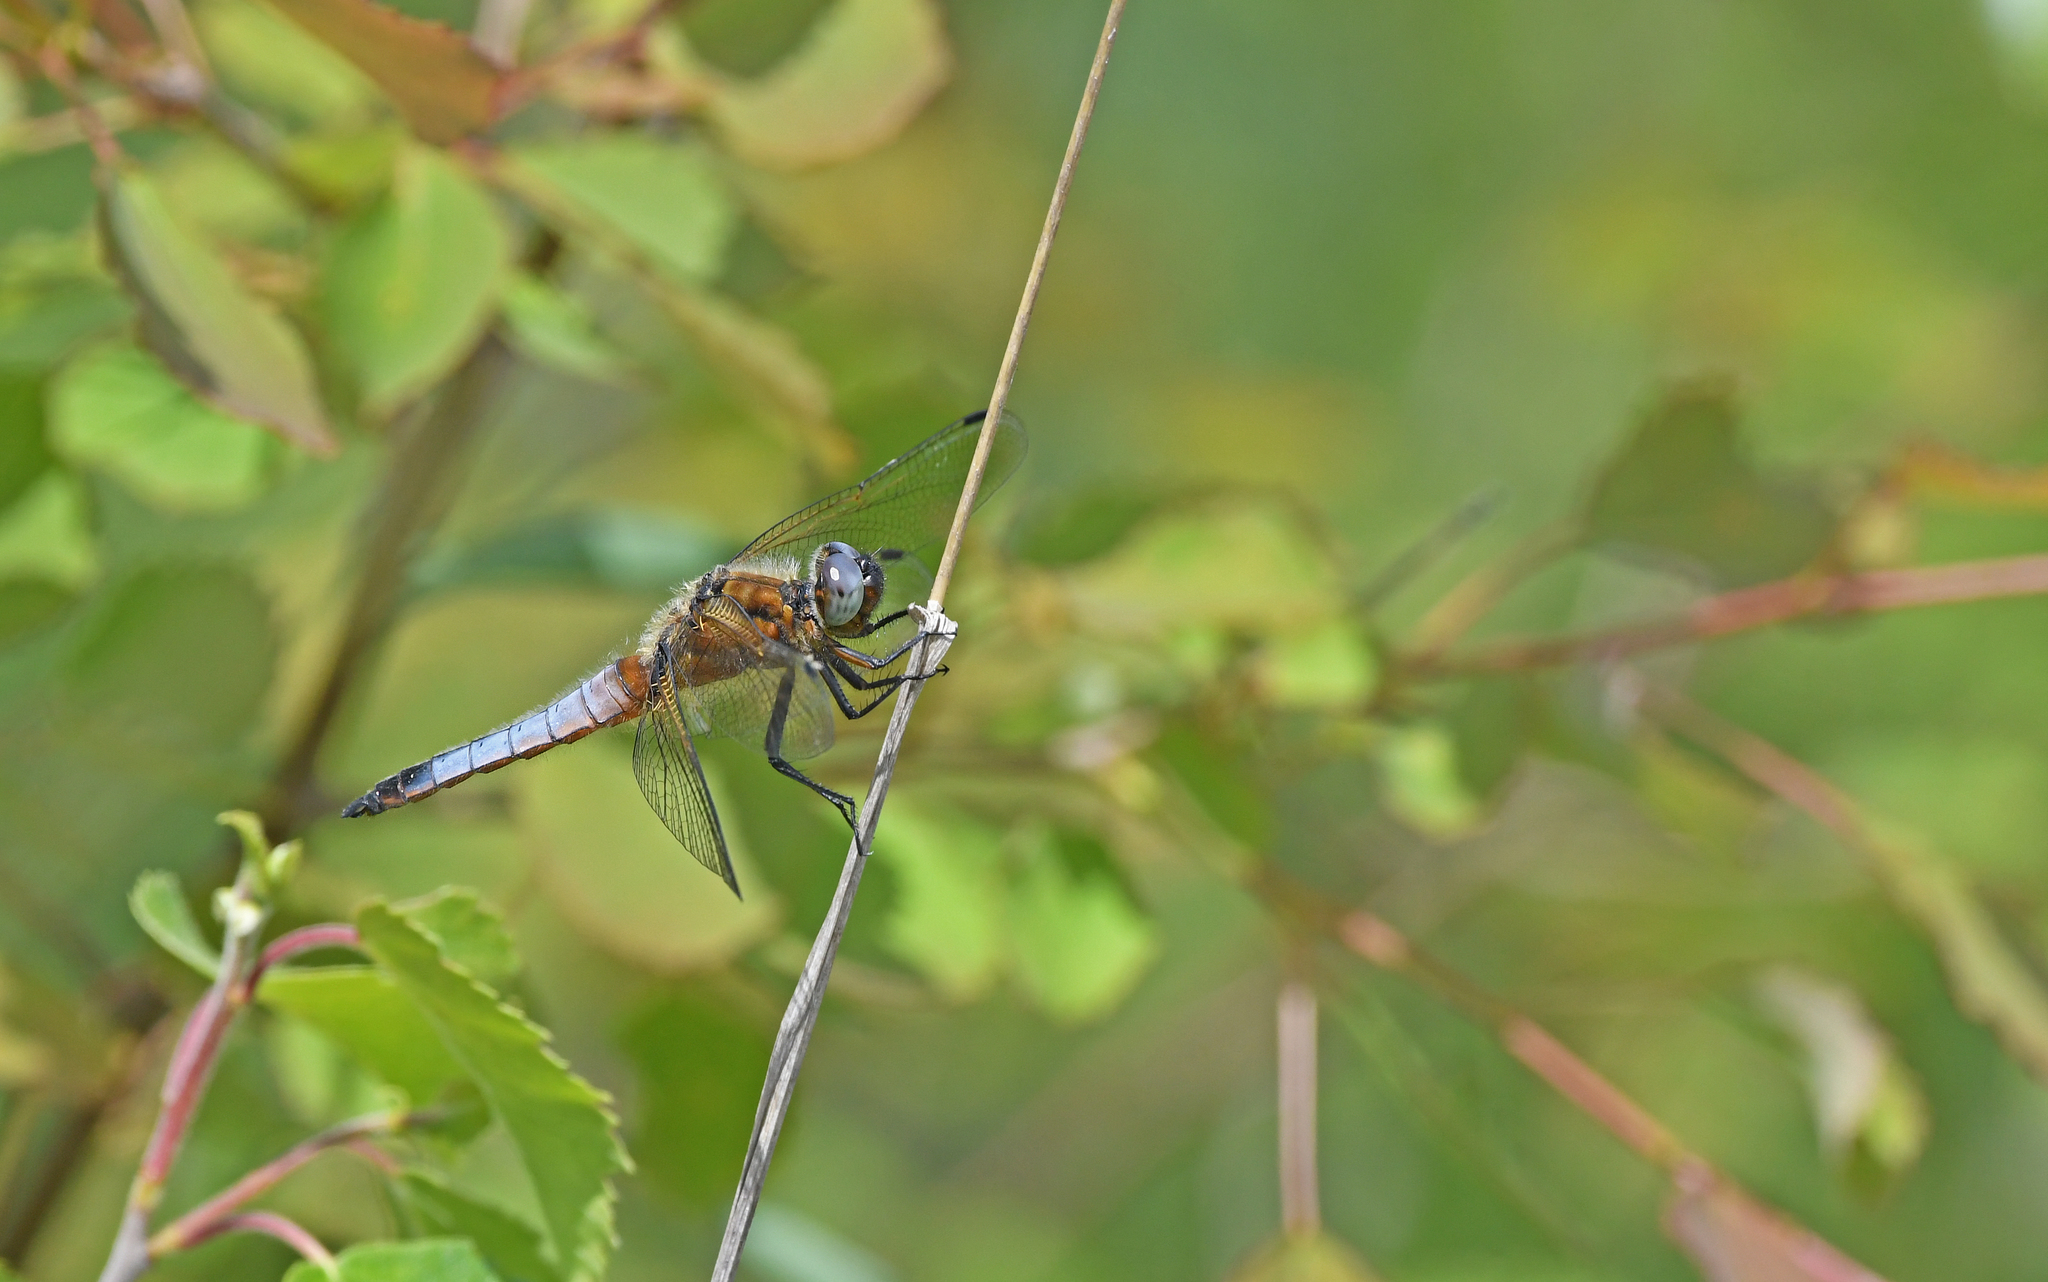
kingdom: Animalia
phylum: Arthropoda
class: Insecta
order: Odonata
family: Libellulidae
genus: Libellula
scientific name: Libellula fulva
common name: Blue chaser
